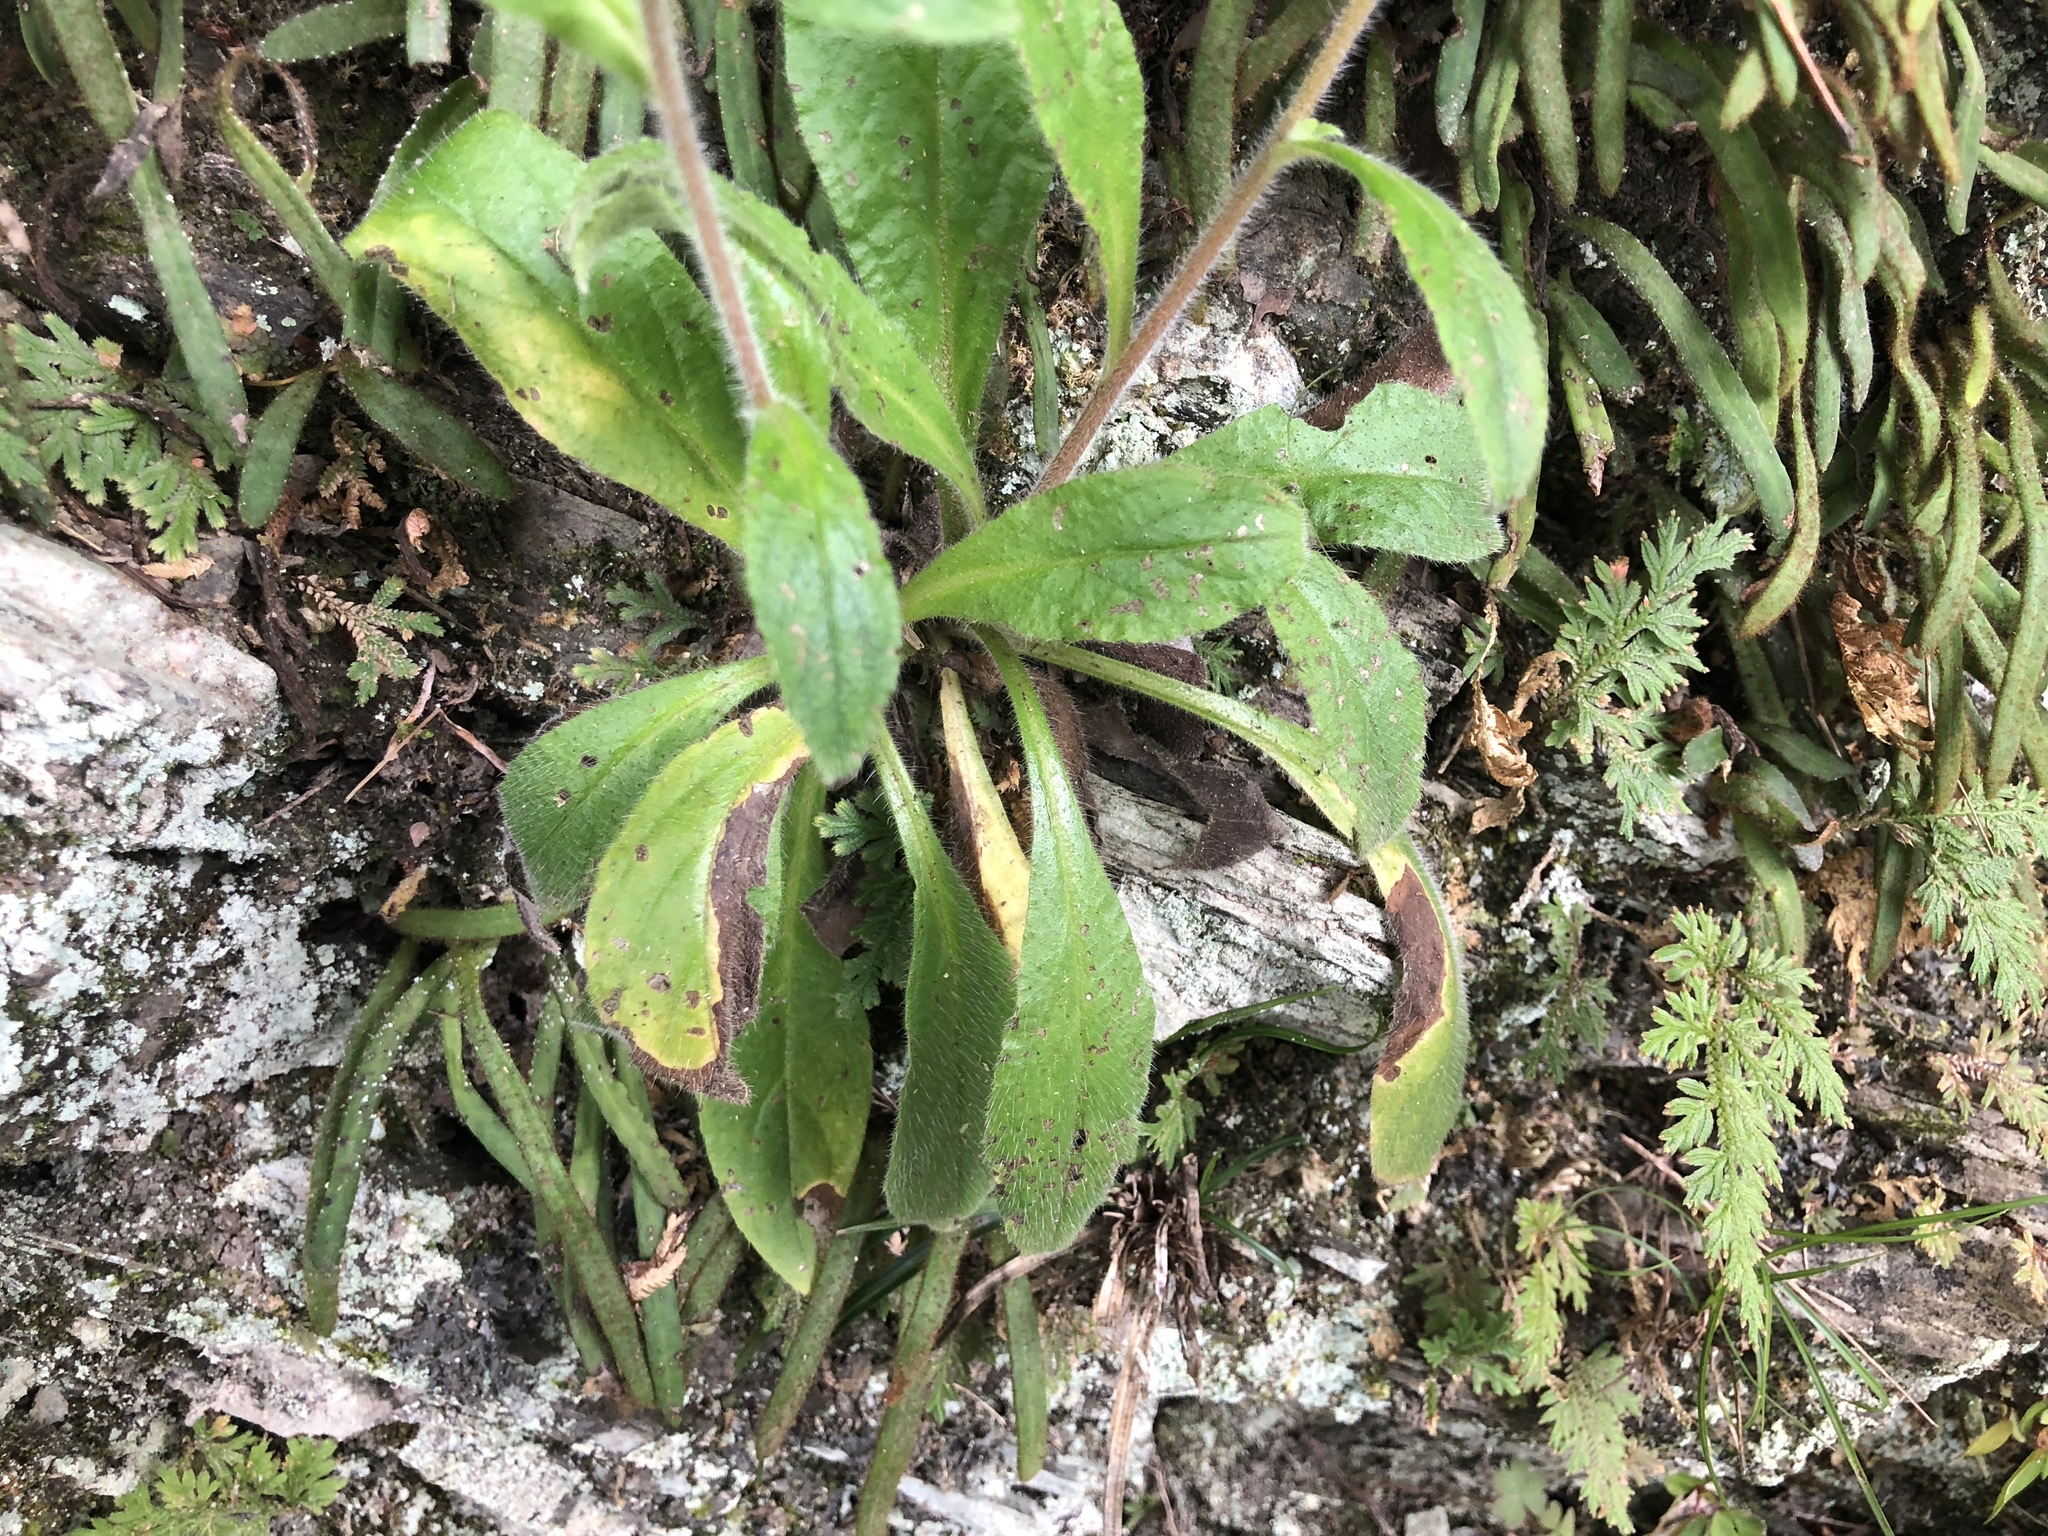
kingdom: Plantae
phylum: Tracheophyta
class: Magnoliopsida
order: Boraginales
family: Boraginaceae
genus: Myosotis
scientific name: Myosotis arvensis
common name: Field forget-me-not
